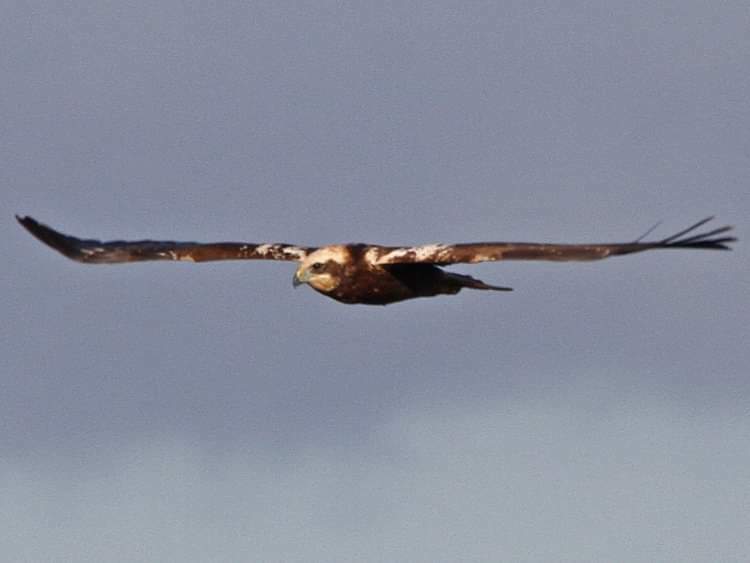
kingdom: Animalia
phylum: Chordata
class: Aves
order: Accipitriformes
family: Accipitridae
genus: Circus
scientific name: Circus aeruginosus
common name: Western marsh harrier
